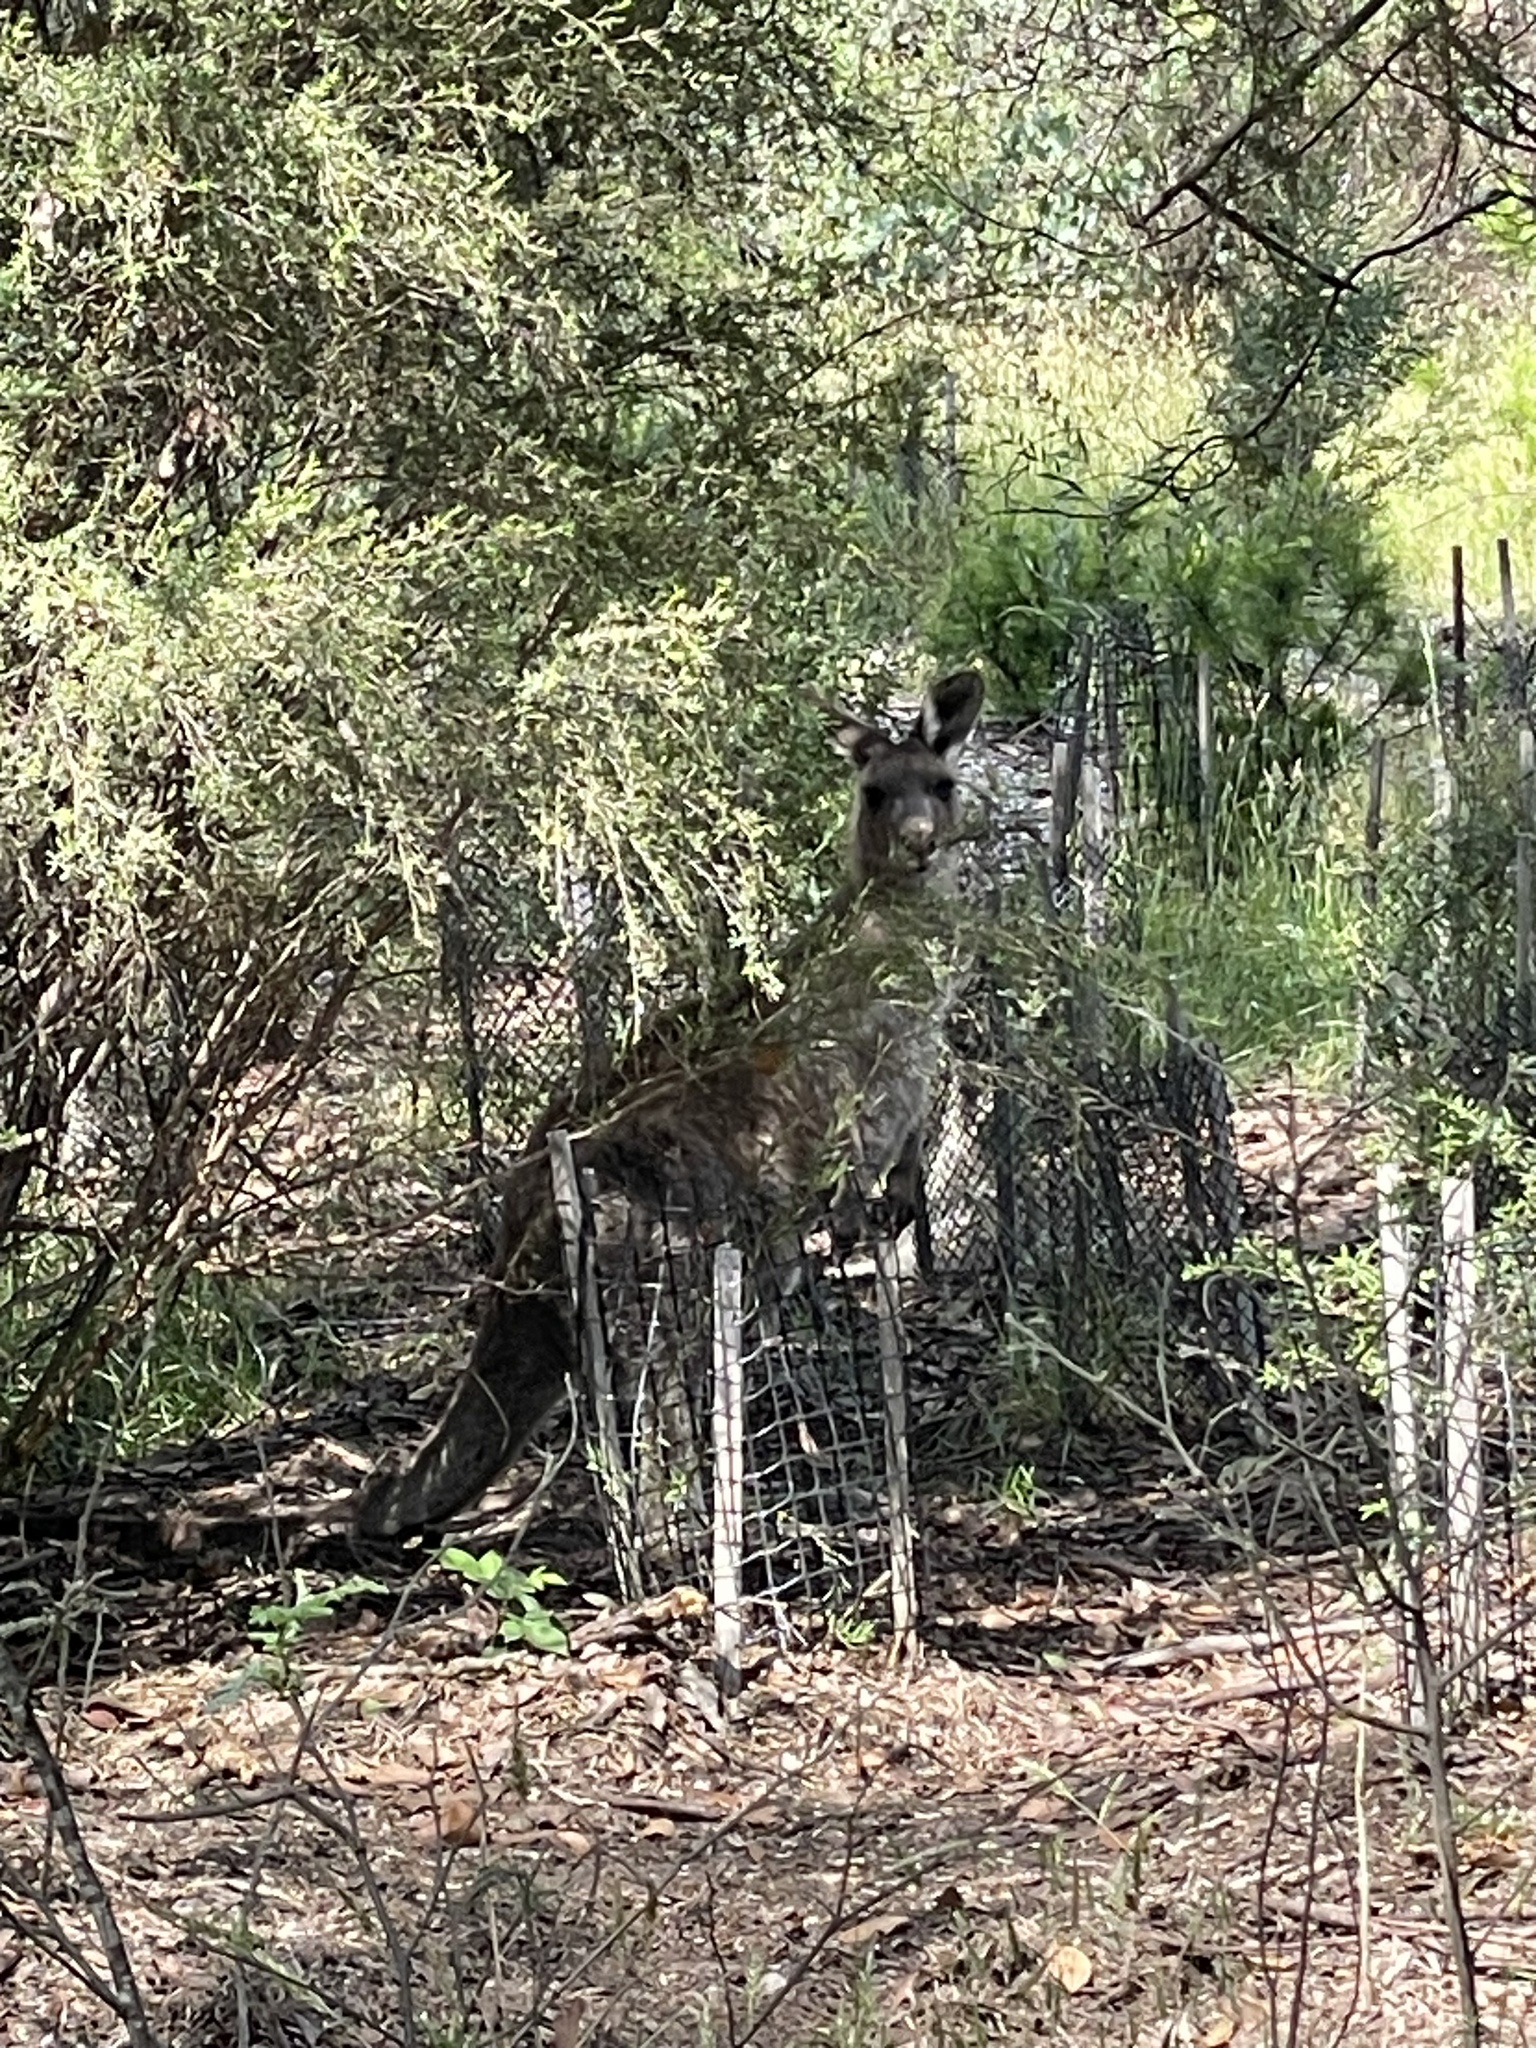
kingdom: Animalia
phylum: Chordata
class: Mammalia
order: Diprotodontia
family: Macropodidae
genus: Macropus
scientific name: Macropus giganteus
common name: Eastern grey kangaroo
